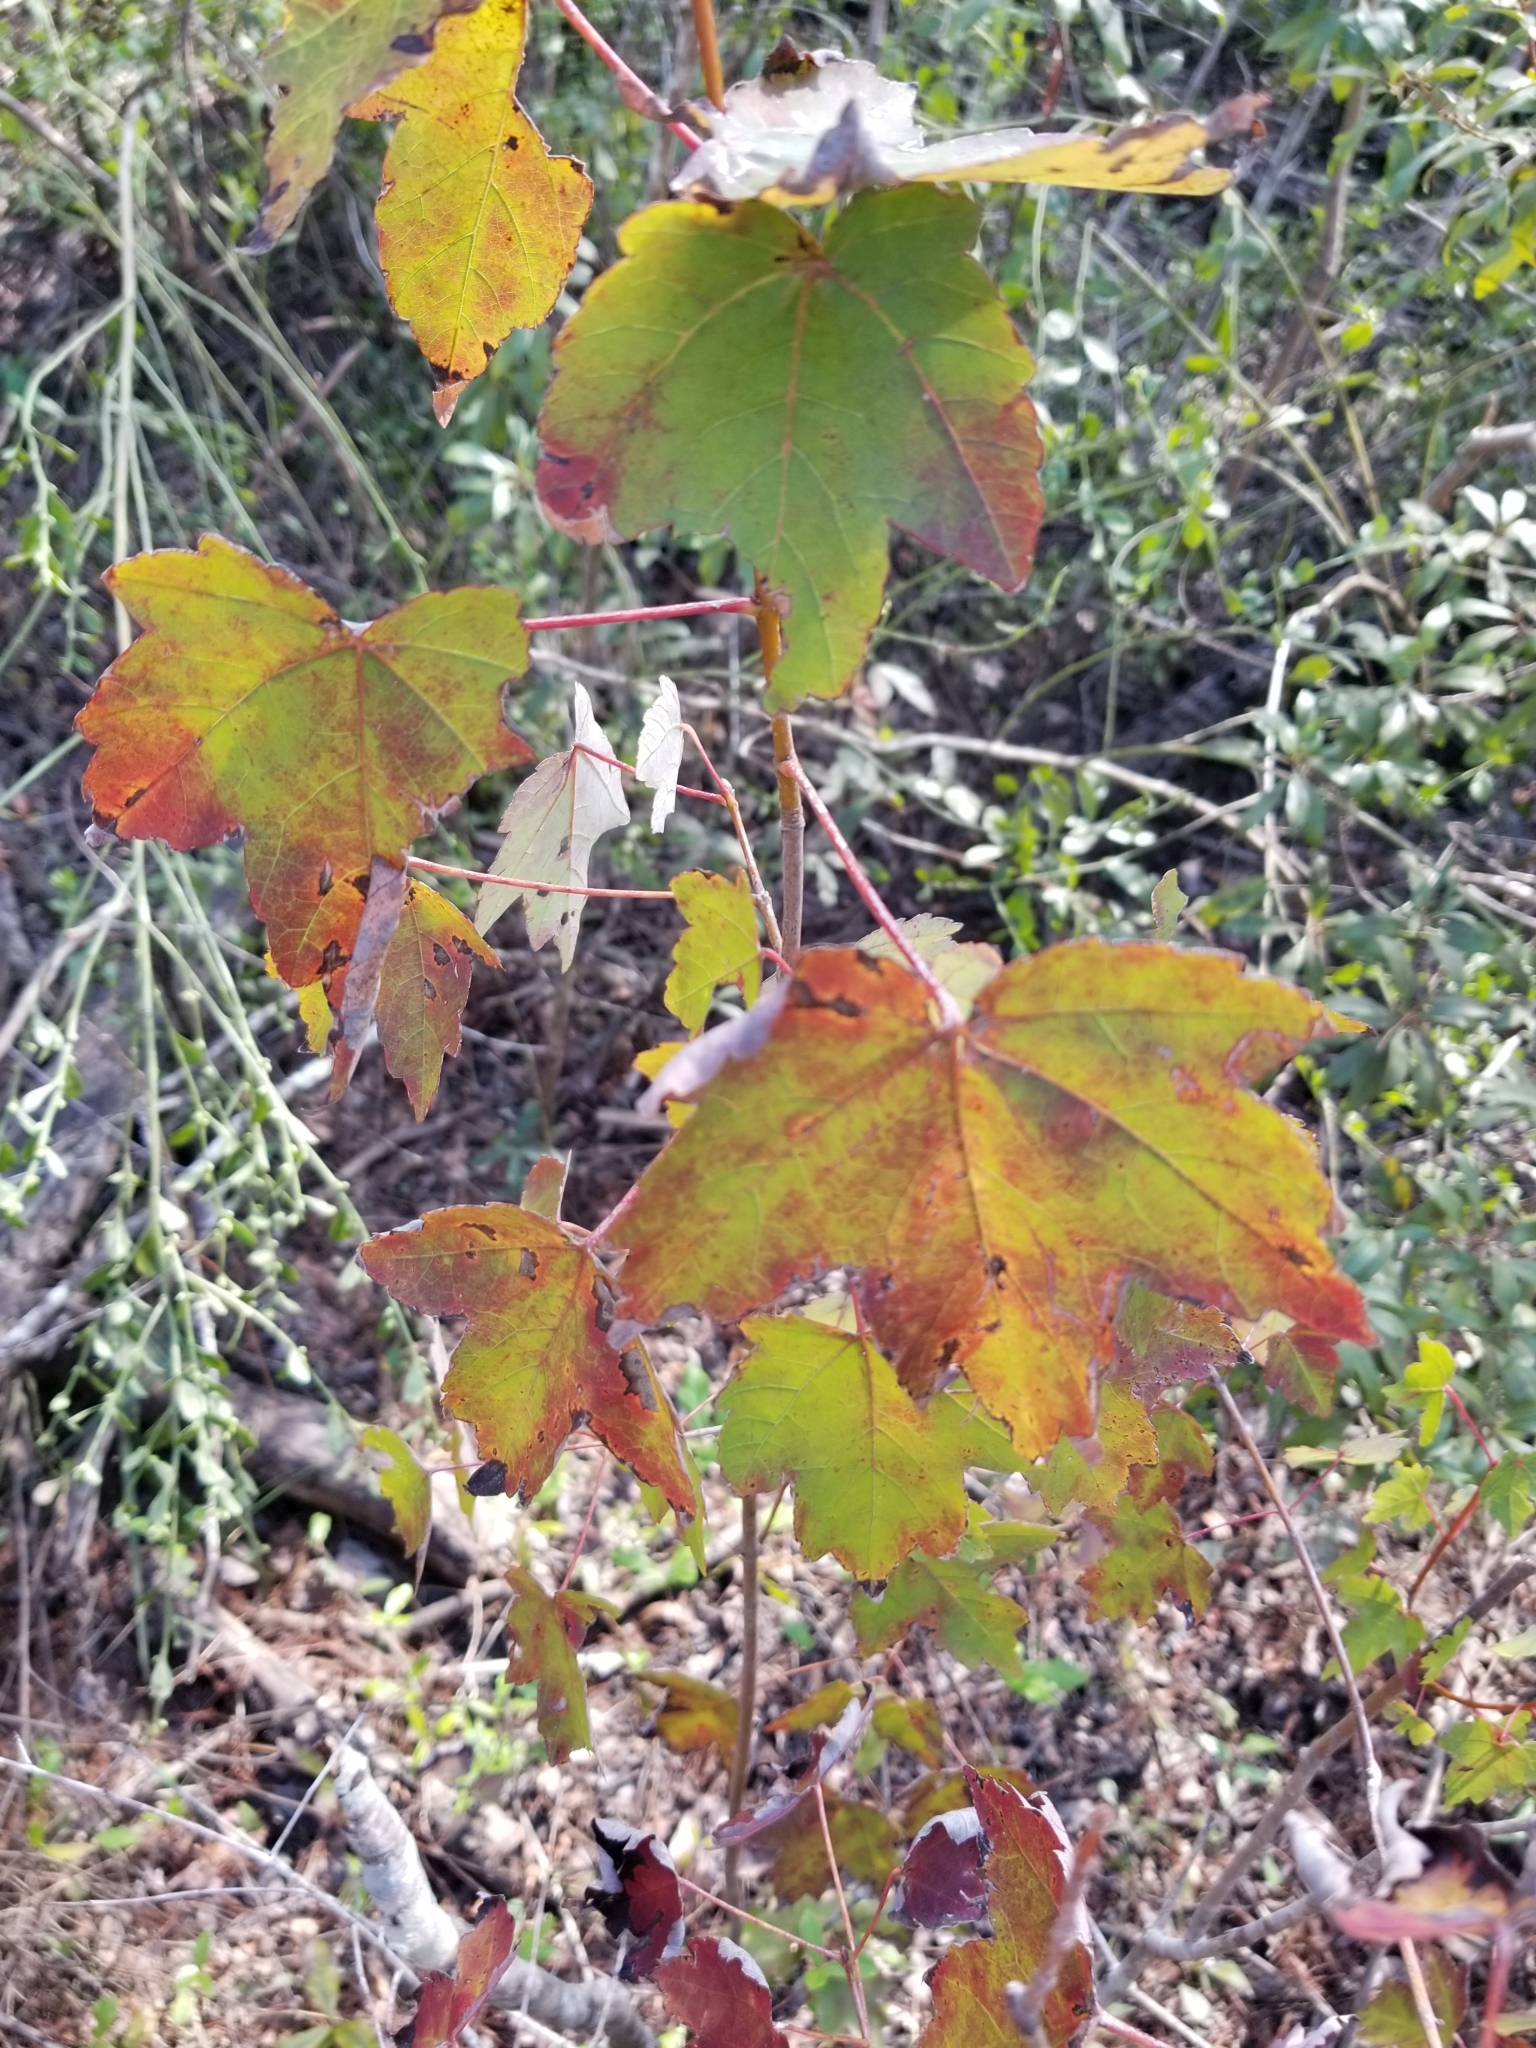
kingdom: Plantae
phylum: Tracheophyta
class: Magnoliopsida
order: Sapindales
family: Sapindaceae
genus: Acer
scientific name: Acer rubrum
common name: Red maple
